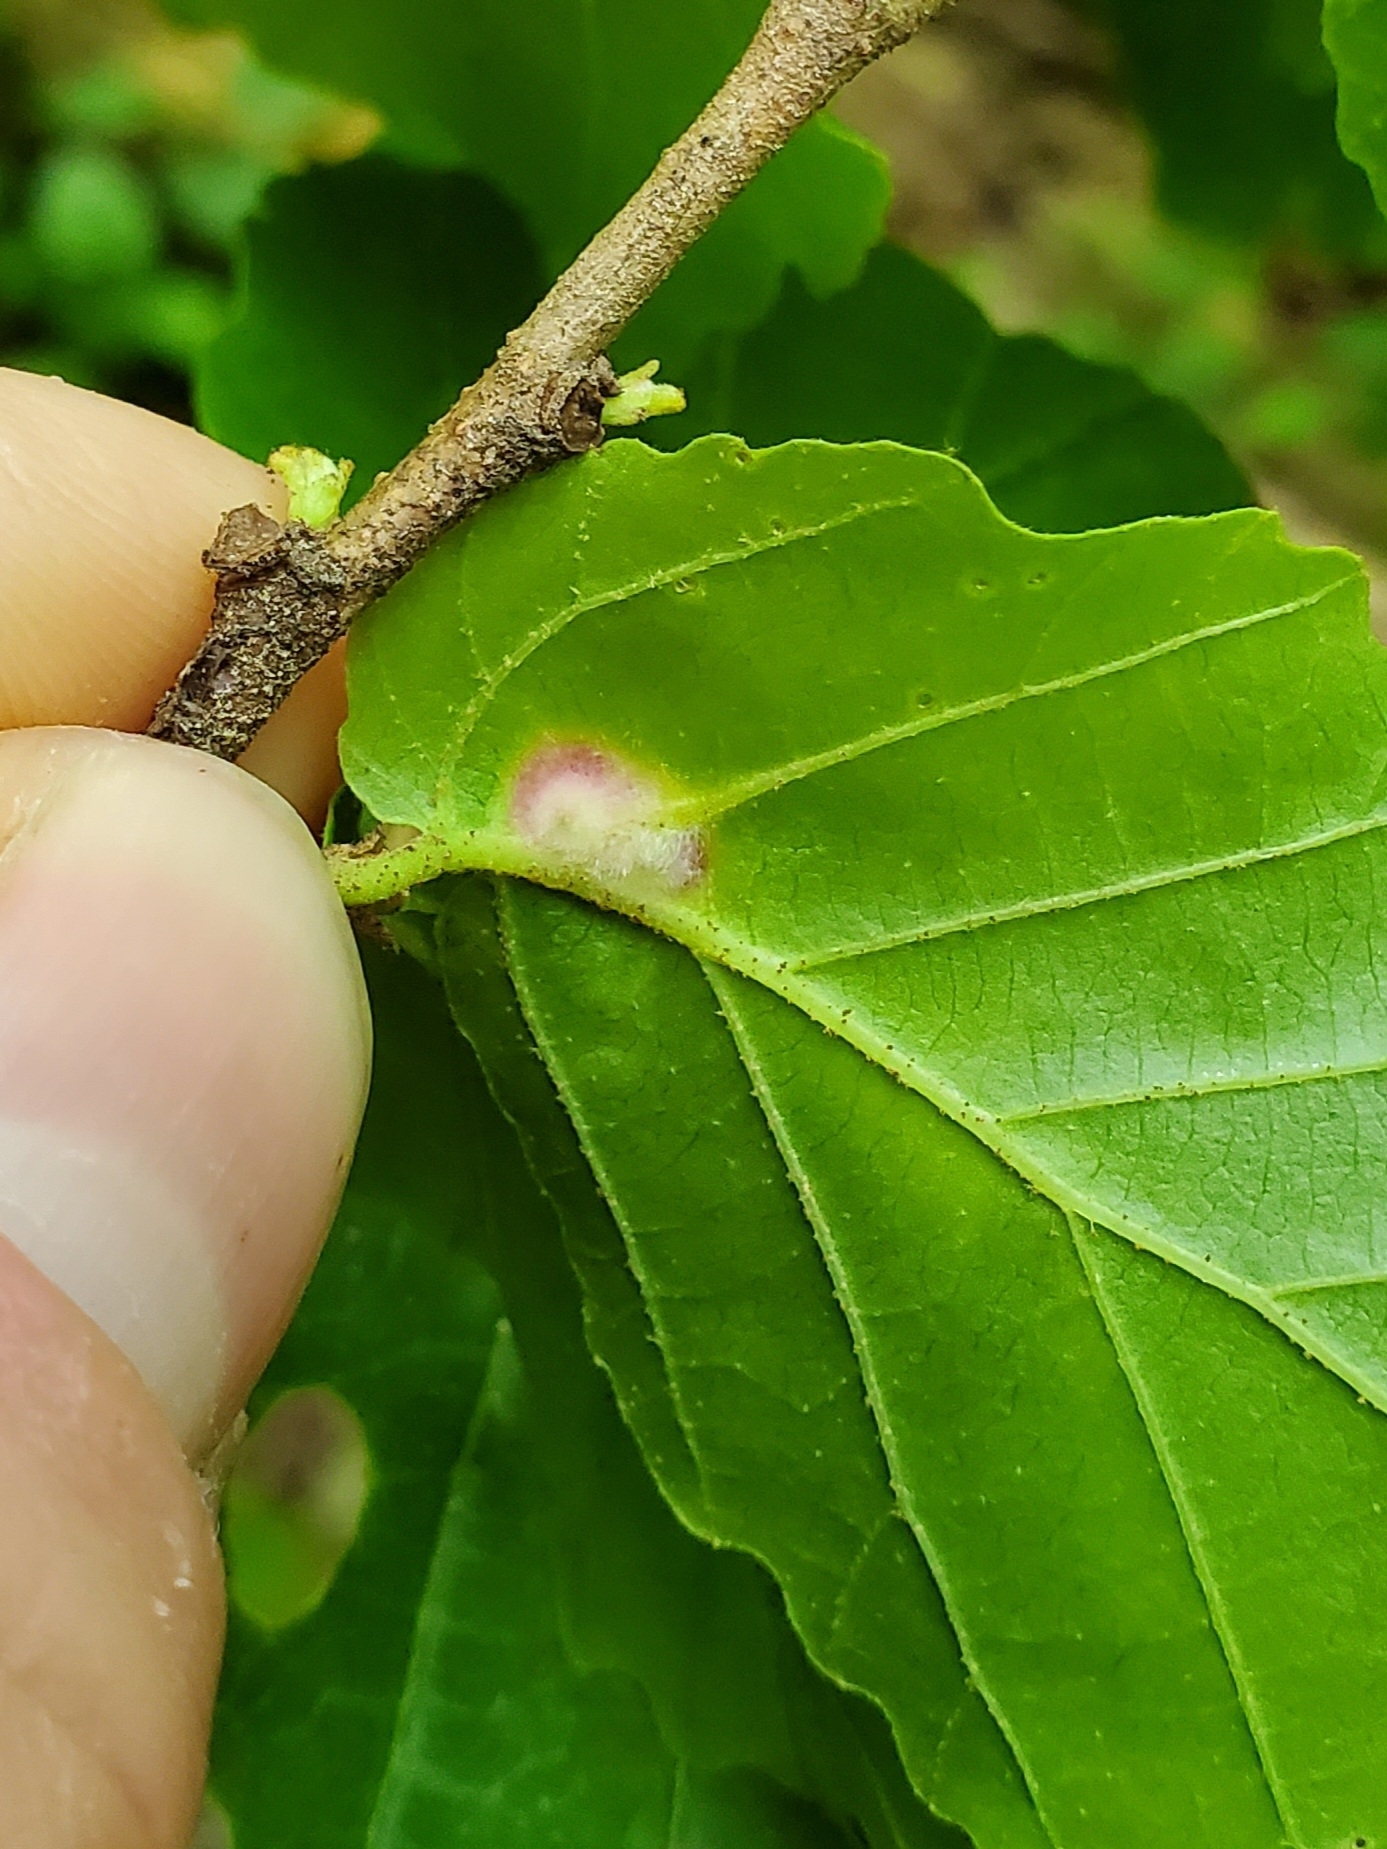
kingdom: Animalia
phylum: Arthropoda
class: Insecta
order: Hemiptera
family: Aphididae
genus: Hormaphis
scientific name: Hormaphis hamamelidis
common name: Witch-hazel cone gall aphid
